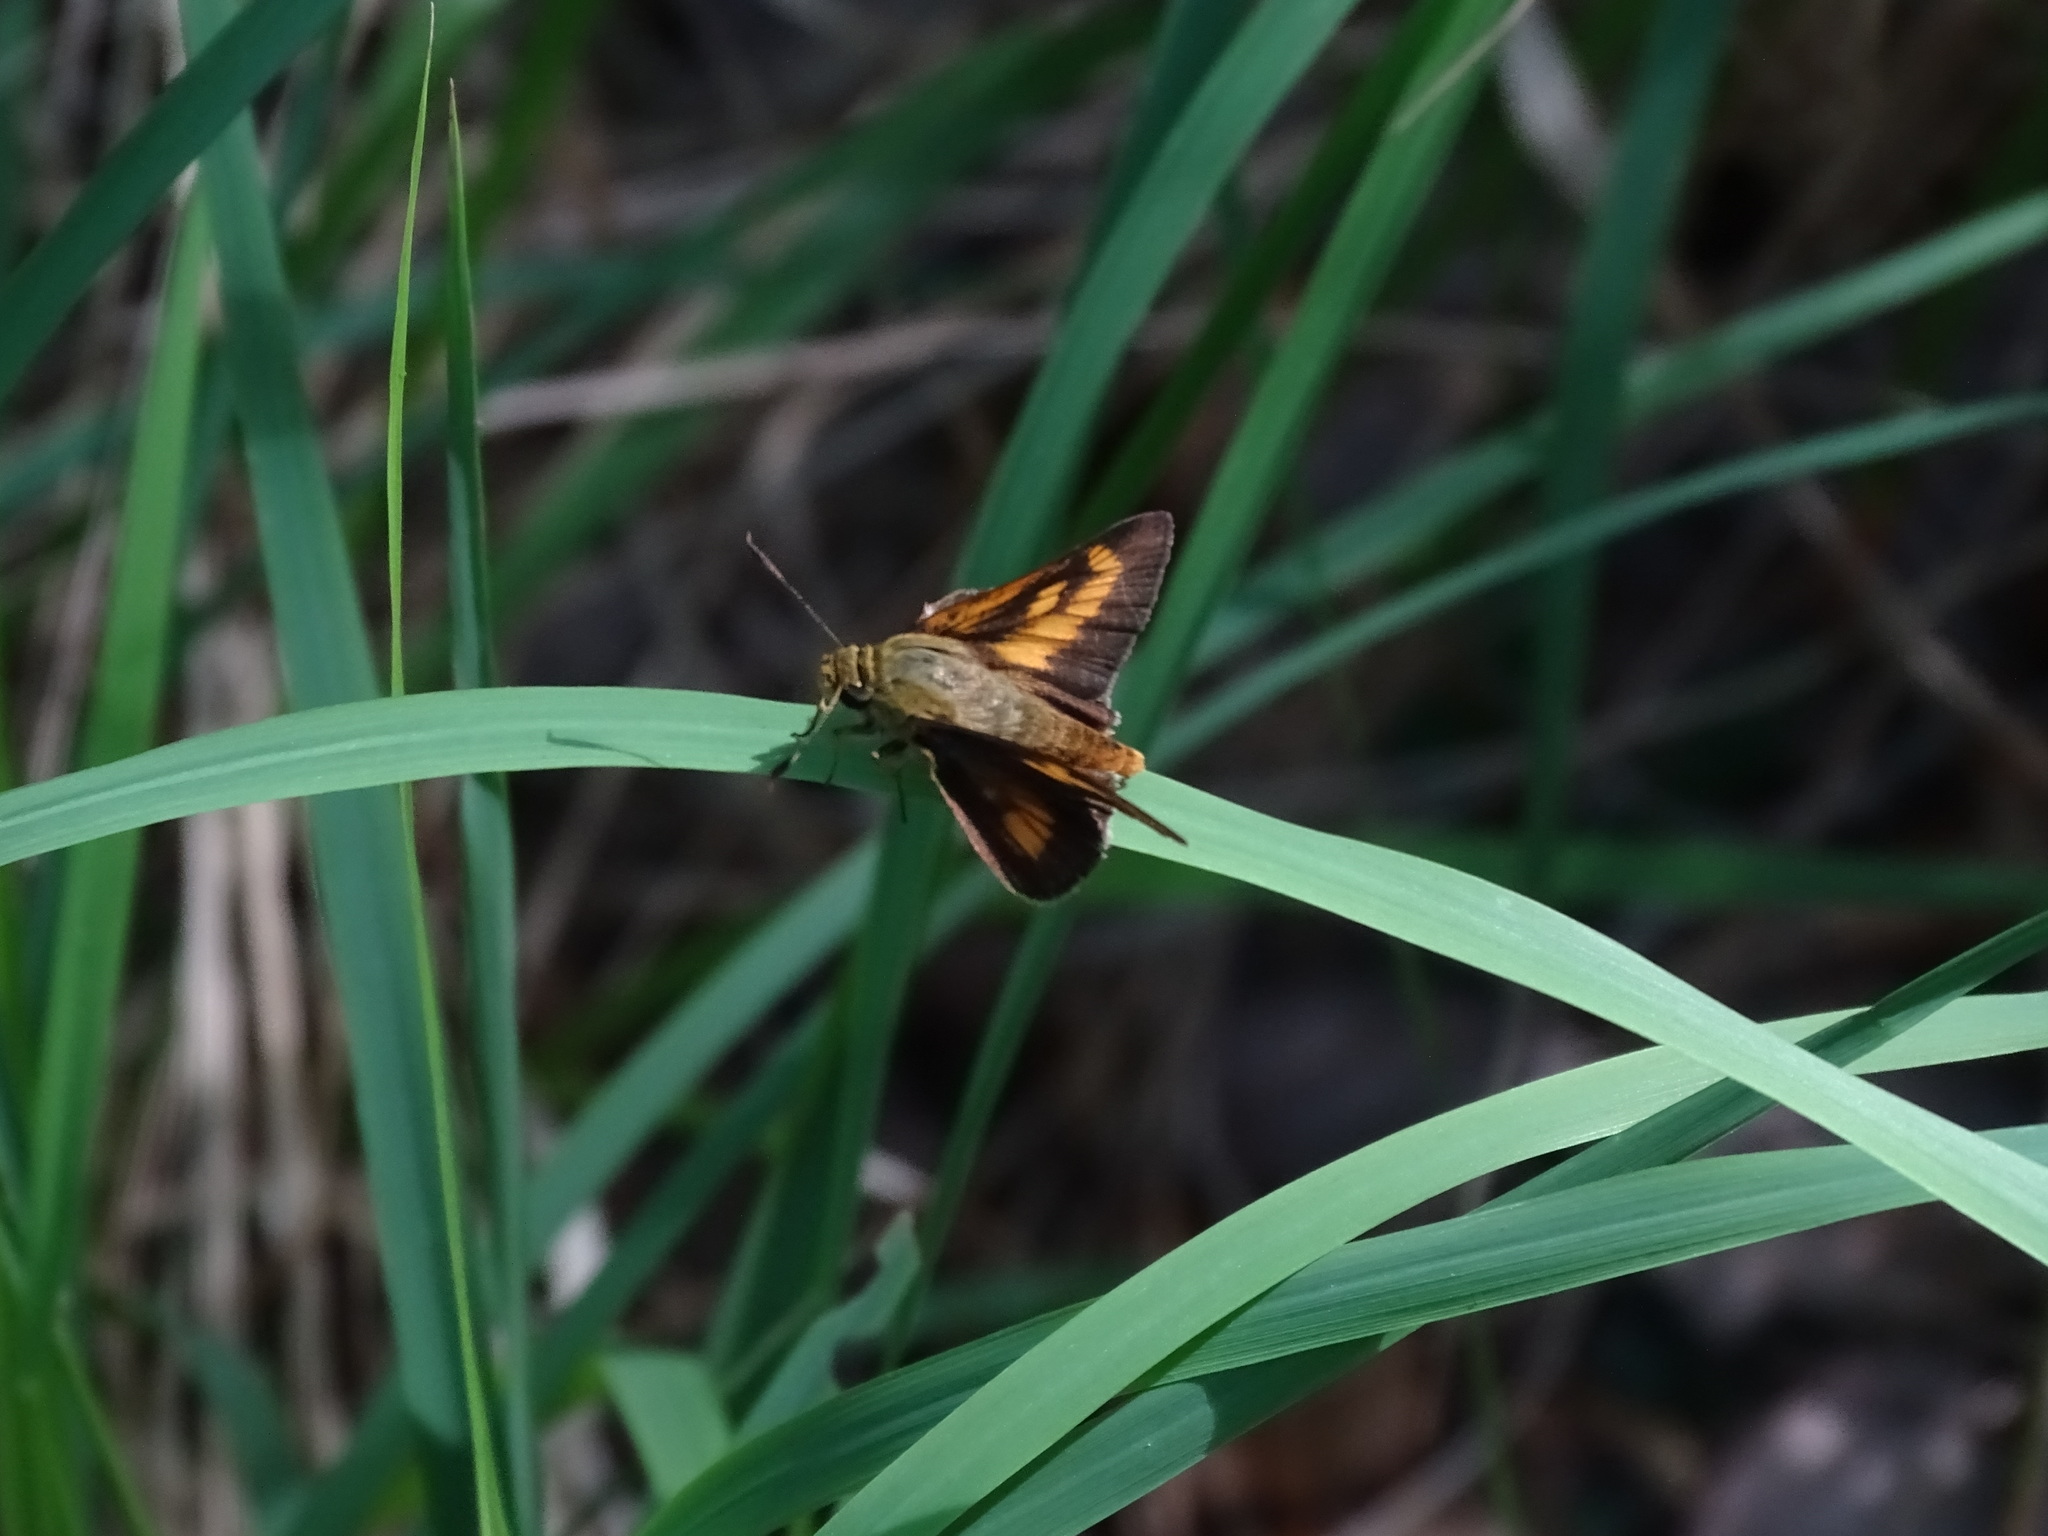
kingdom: Animalia
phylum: Arthropoda
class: Insecta
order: Lepidoptera
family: Hesperiidae
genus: Problema
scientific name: Problema byssus
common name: Byssus skipper
